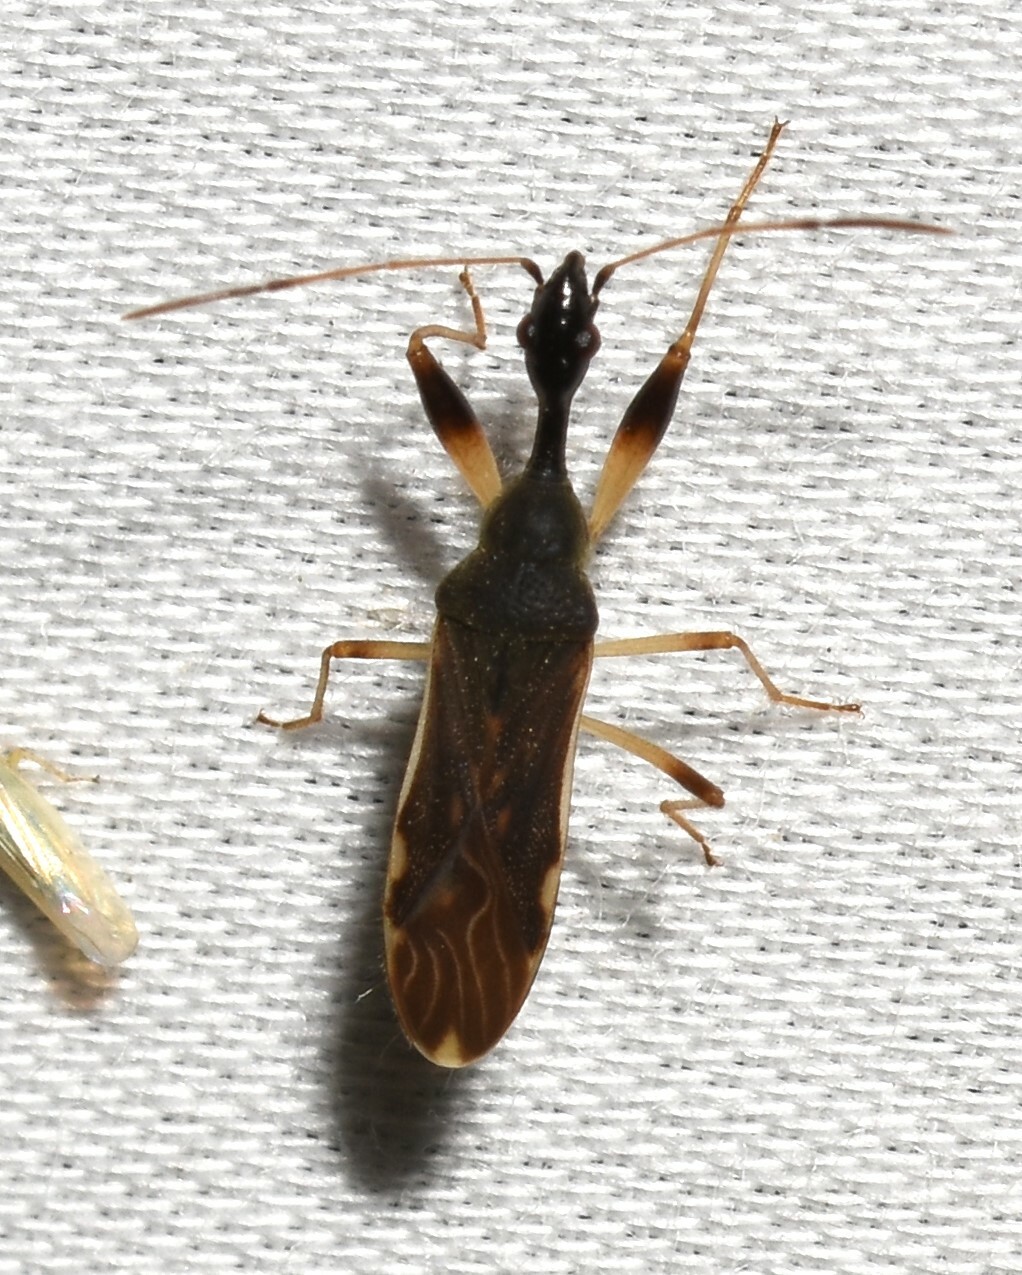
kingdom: Animalia
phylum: Arthropoda
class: Insecta
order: Hemiptera
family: Rhyparochromidae
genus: Myodocha
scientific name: Myodocha serripes
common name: Long-necked seed bug
